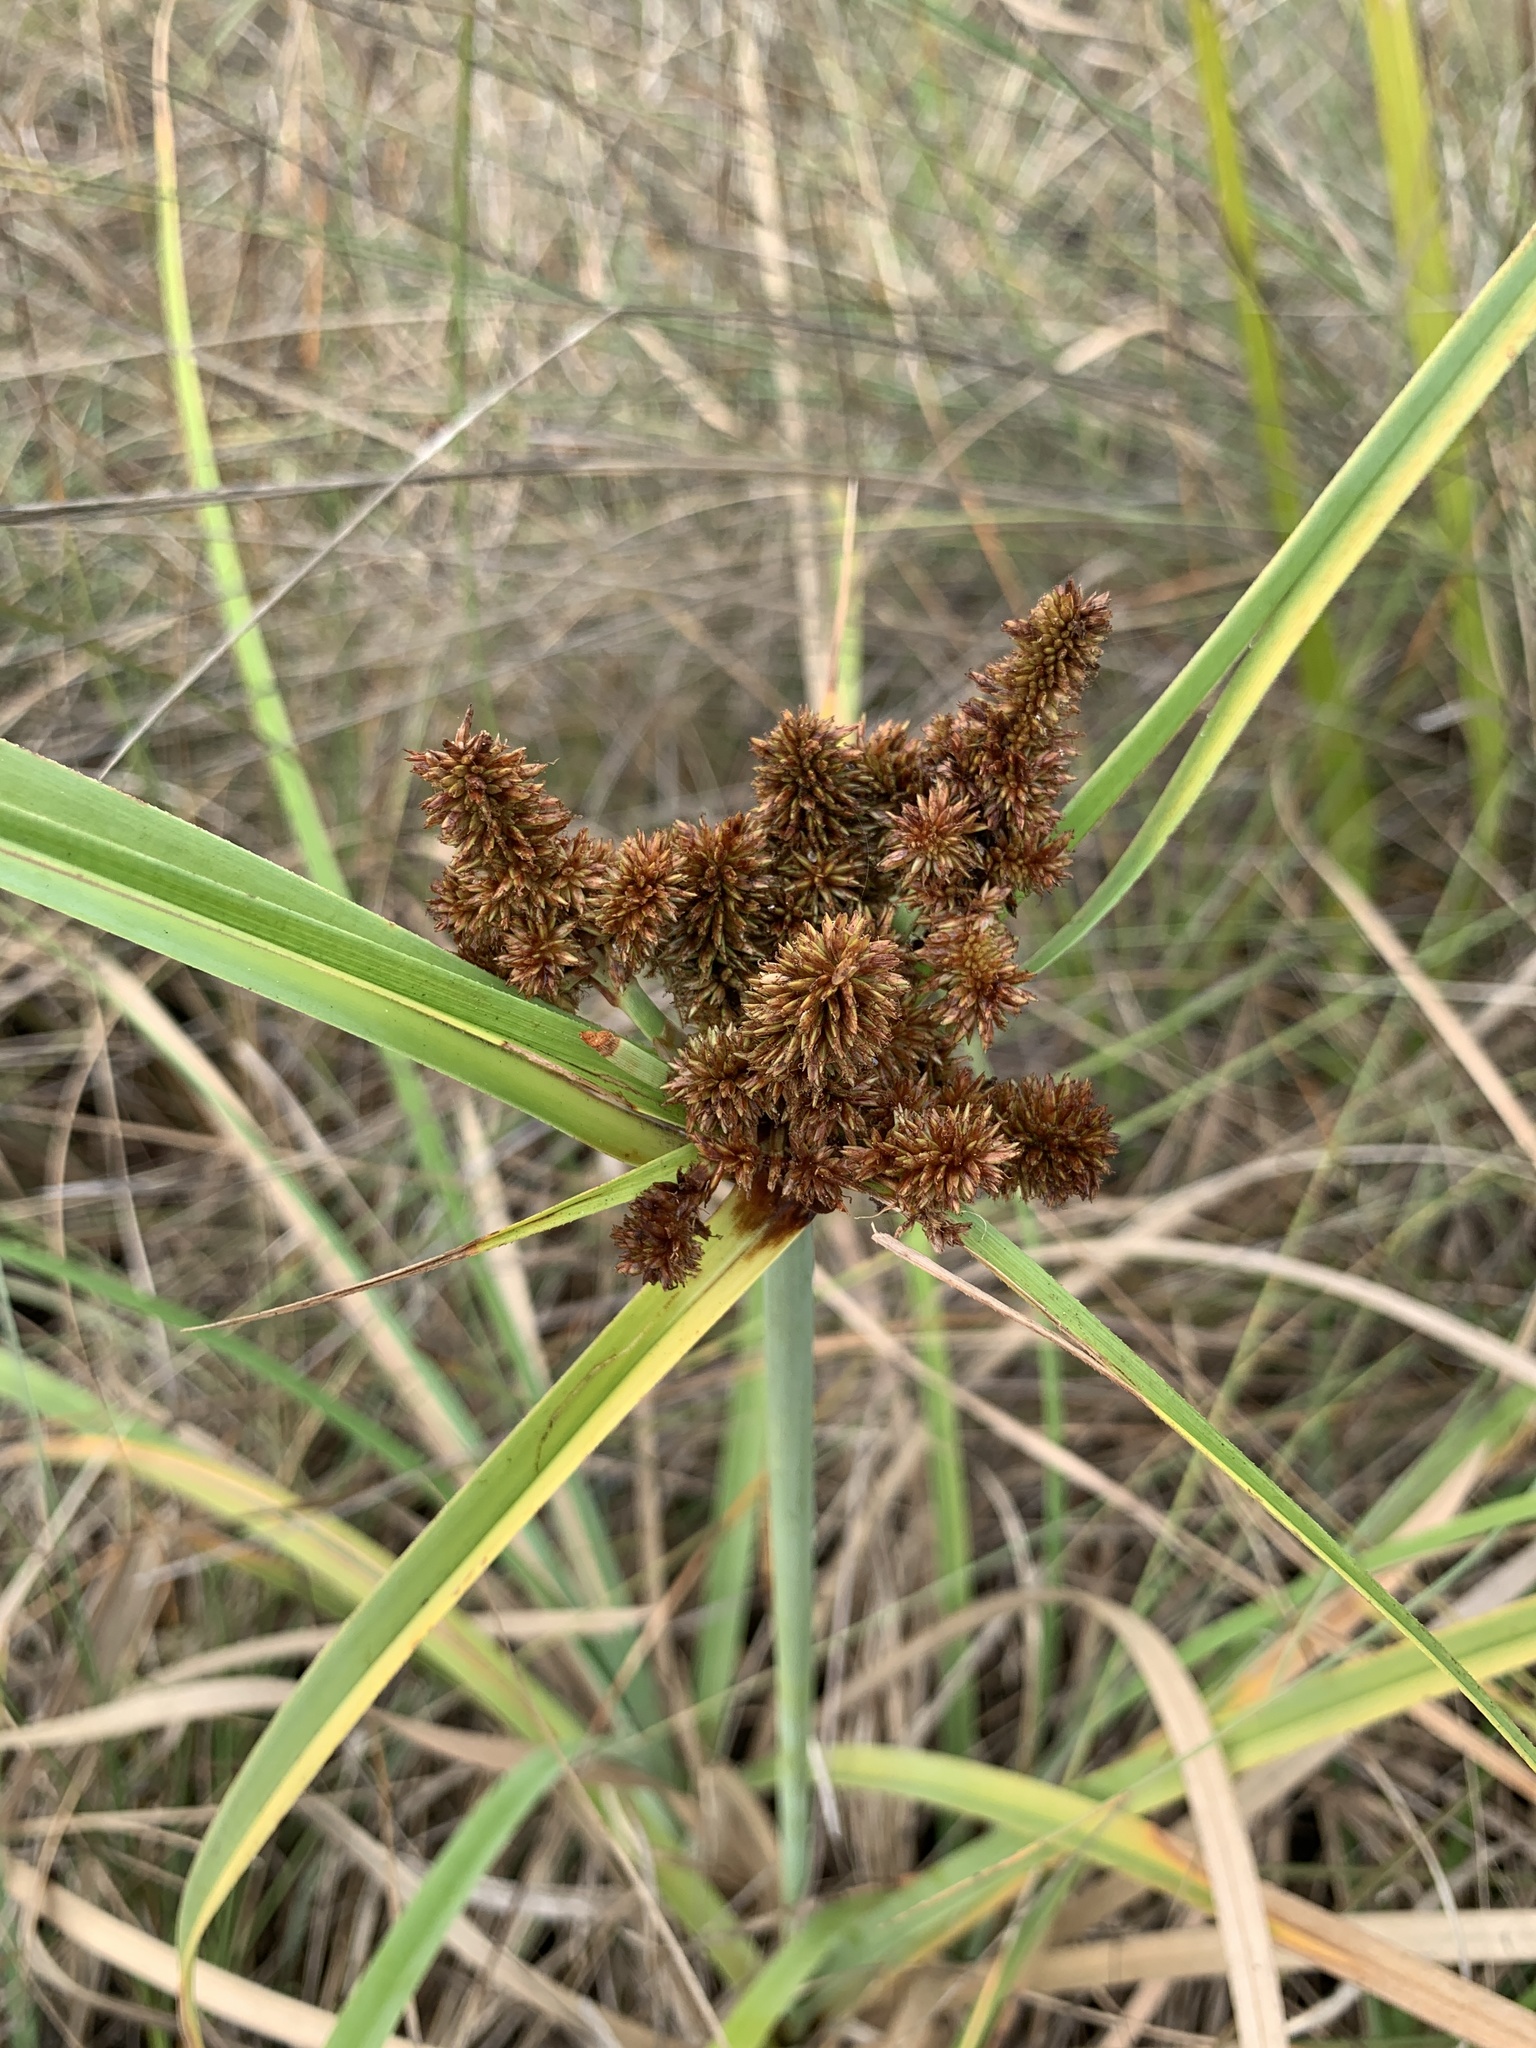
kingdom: Plantae
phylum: Tracheophyta
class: Liliopsida
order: Poales
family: Cyperaceae
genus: Cyperus
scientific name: Cyperus ligularis
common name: Swamp flat sedge
